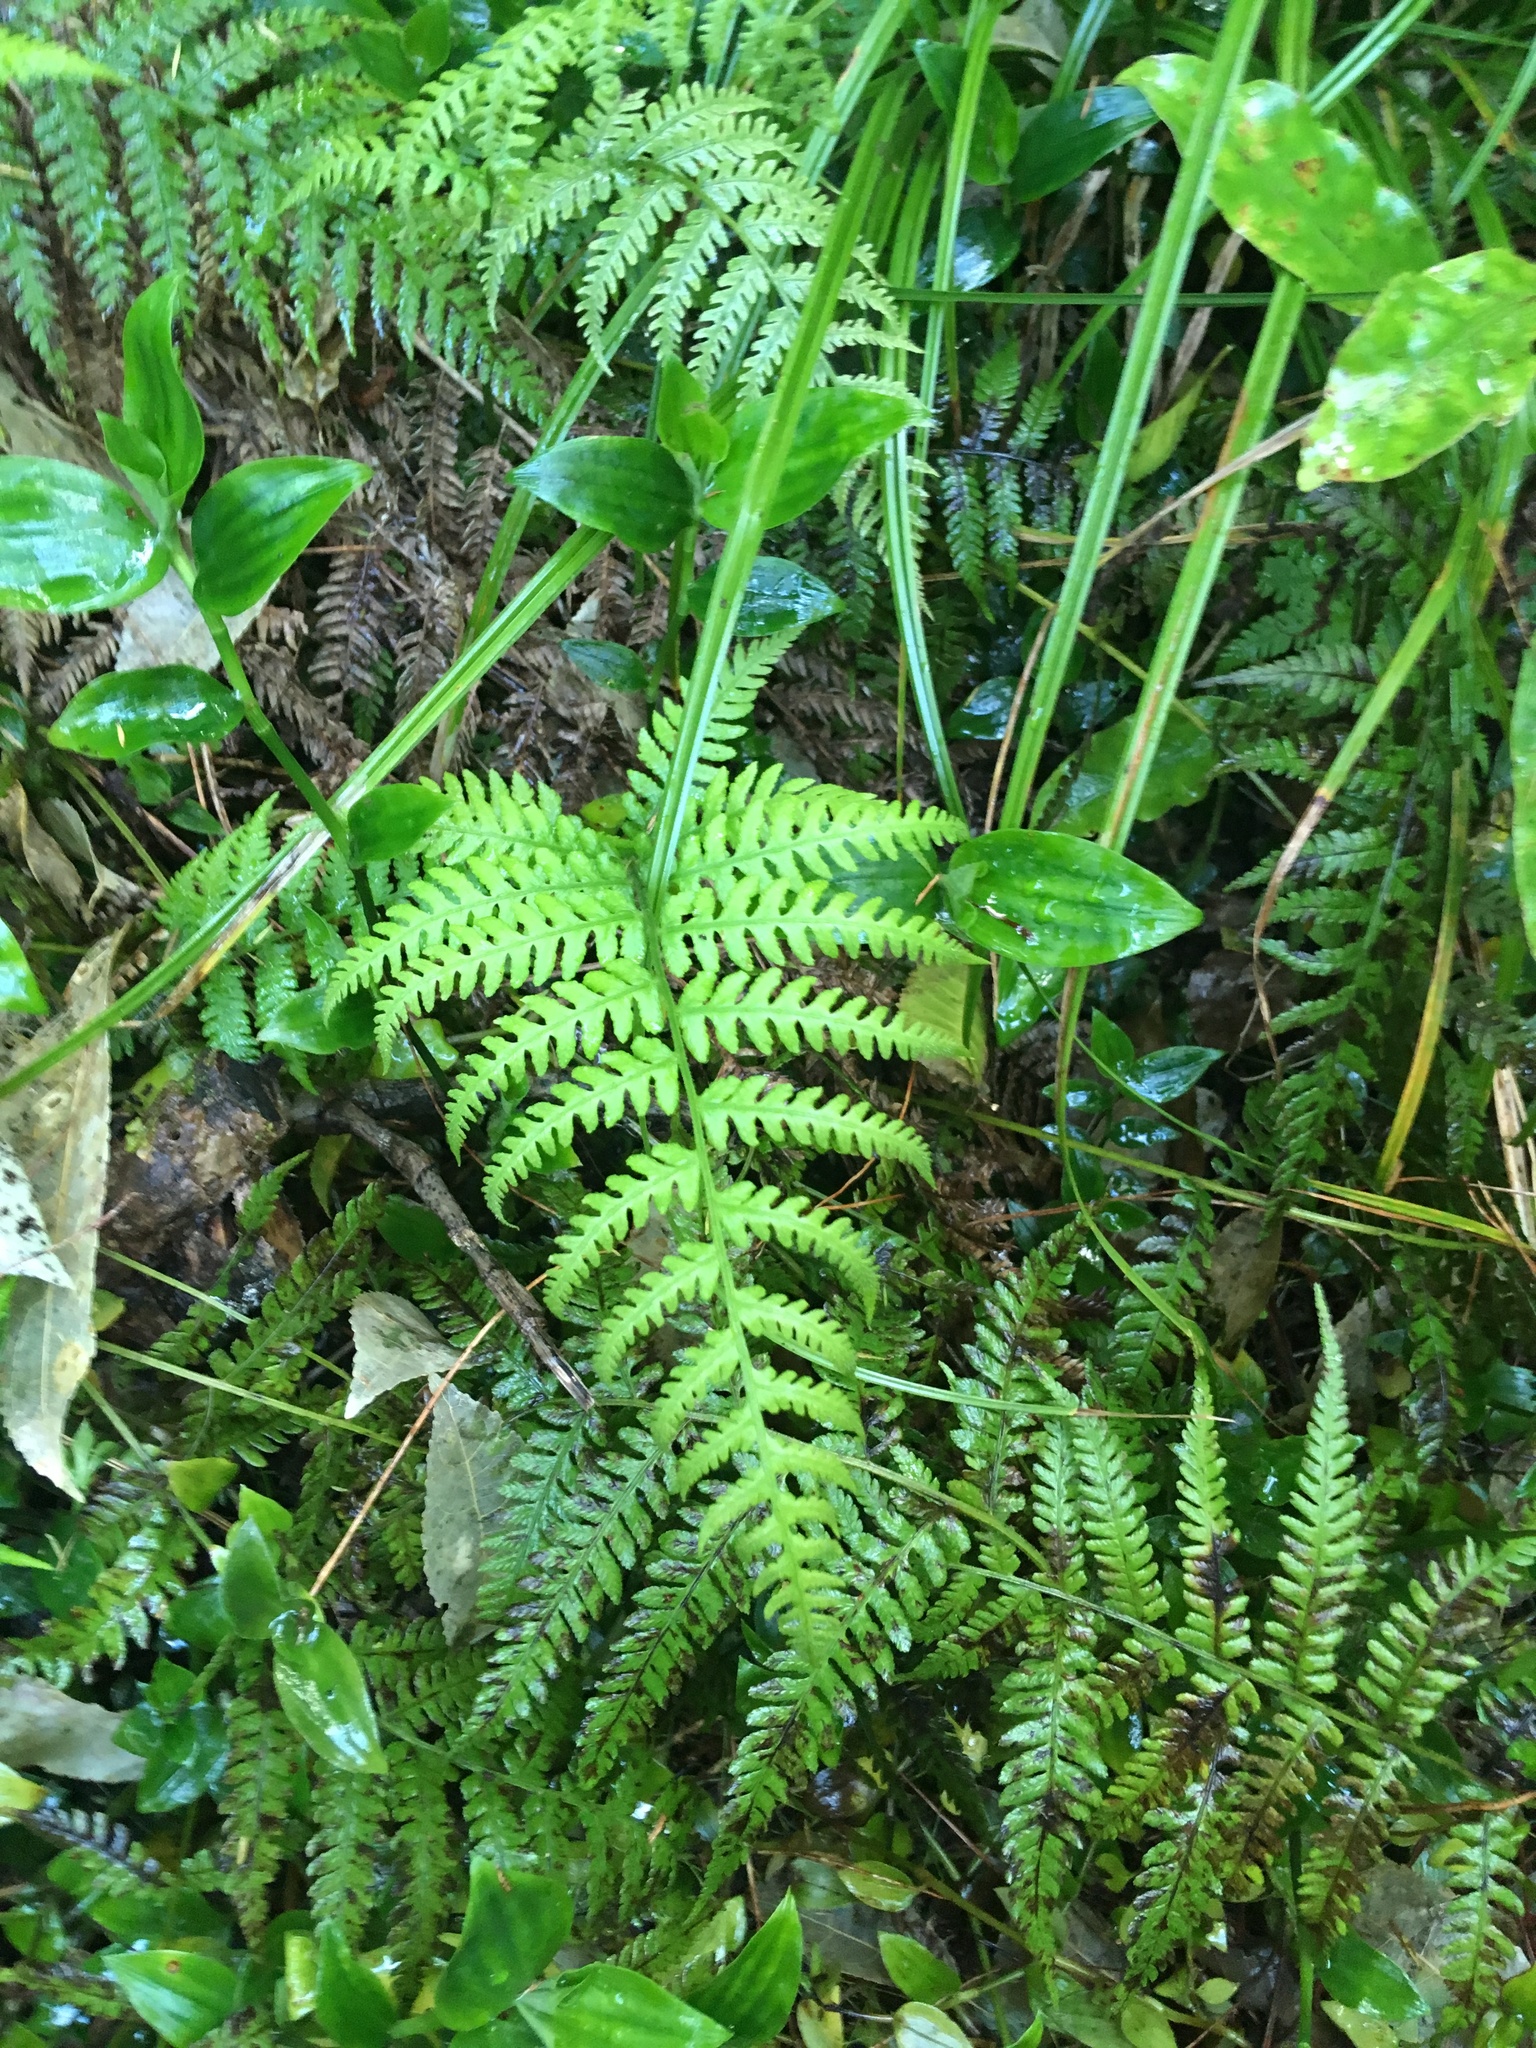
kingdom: Plantae
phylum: Tracheophyta
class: Polypodiopsida
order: Polypodiales
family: Athyriaceae
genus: Deparia
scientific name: Deparia petersenii
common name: Japanese false spleenwort
